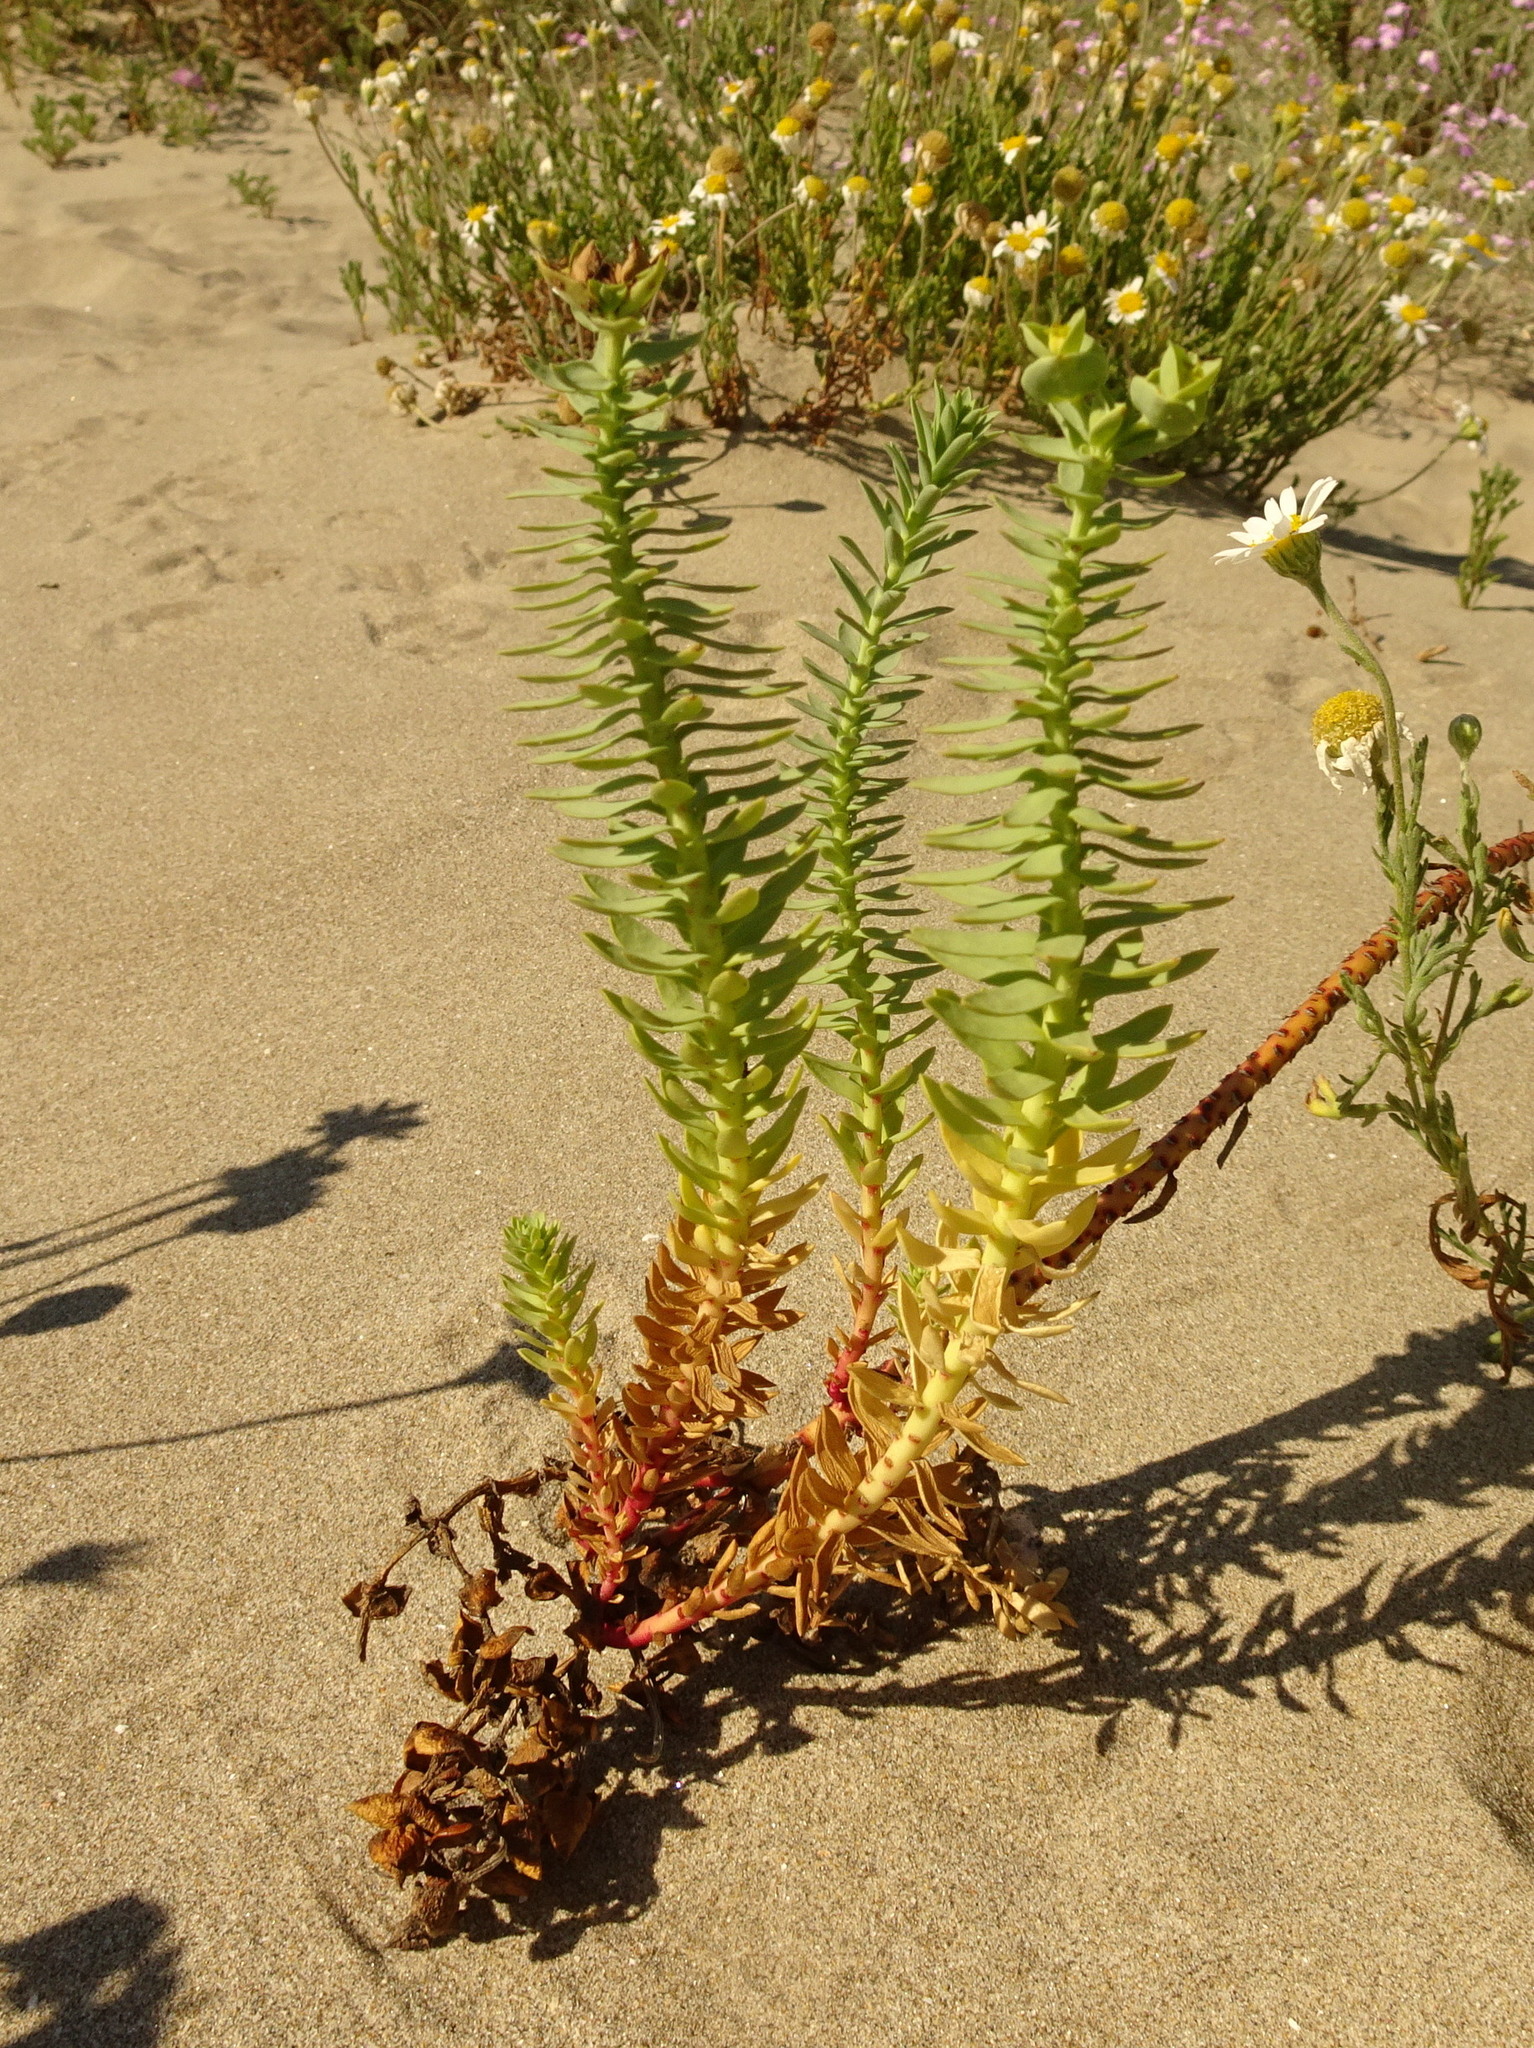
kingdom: Plantae
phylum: Tracheophyta
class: Magnoliopsida
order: Malpighiales
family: Euphorbiaceae
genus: Euphorbia
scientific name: Euphorbia paralias
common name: Sea spurge
